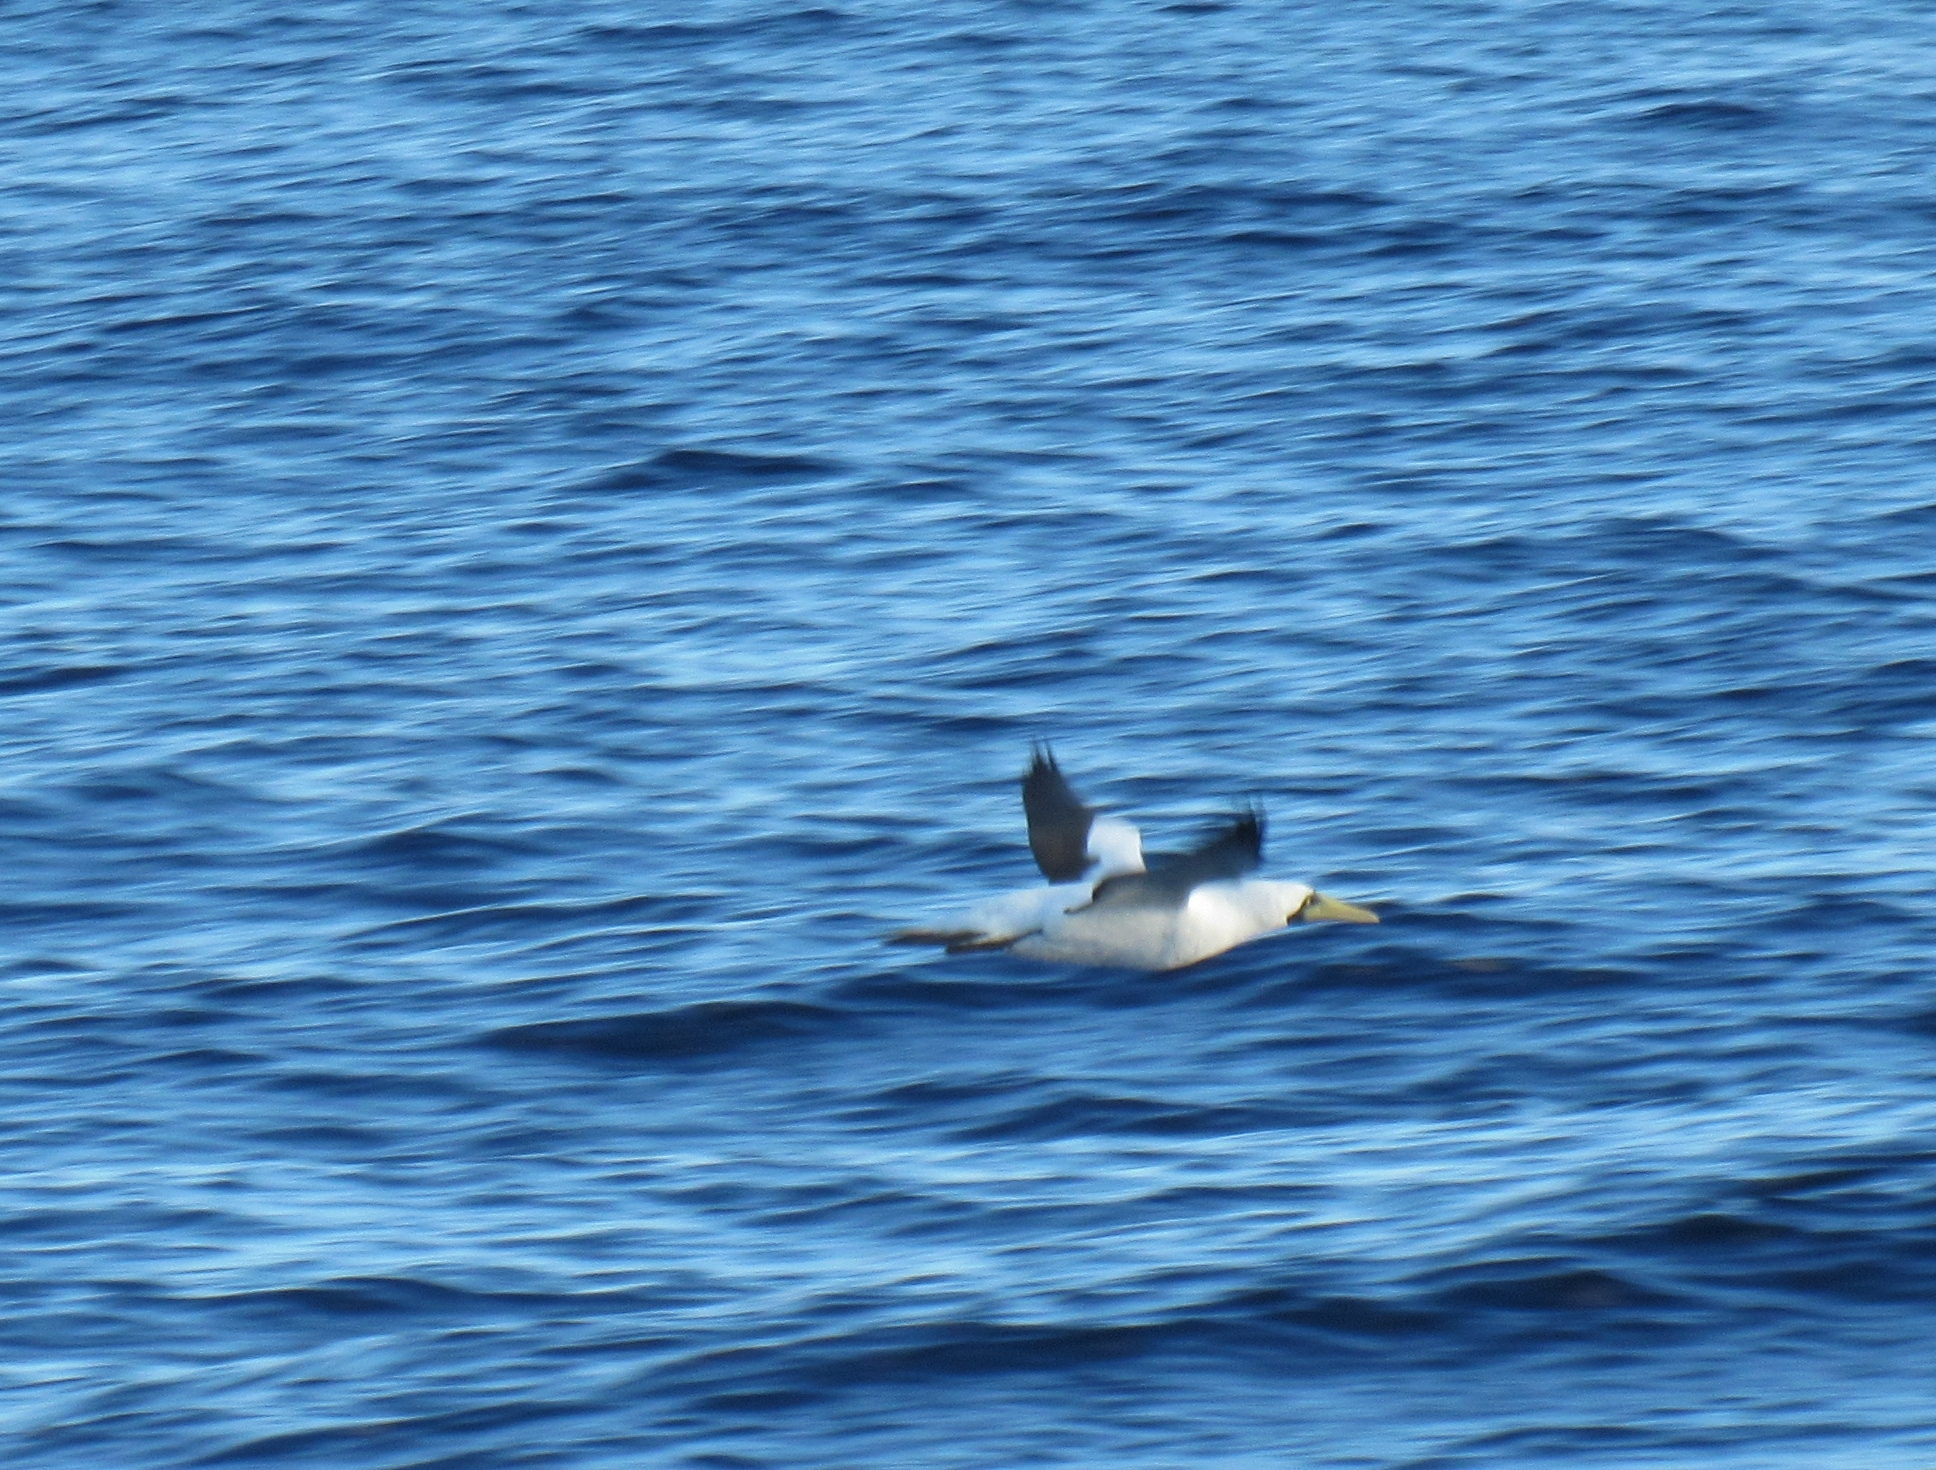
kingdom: Animalia
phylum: Chordata
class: Aves
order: Suliformes
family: Sulidae
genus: Sula
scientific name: Sula dactylatra
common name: Masked booby
